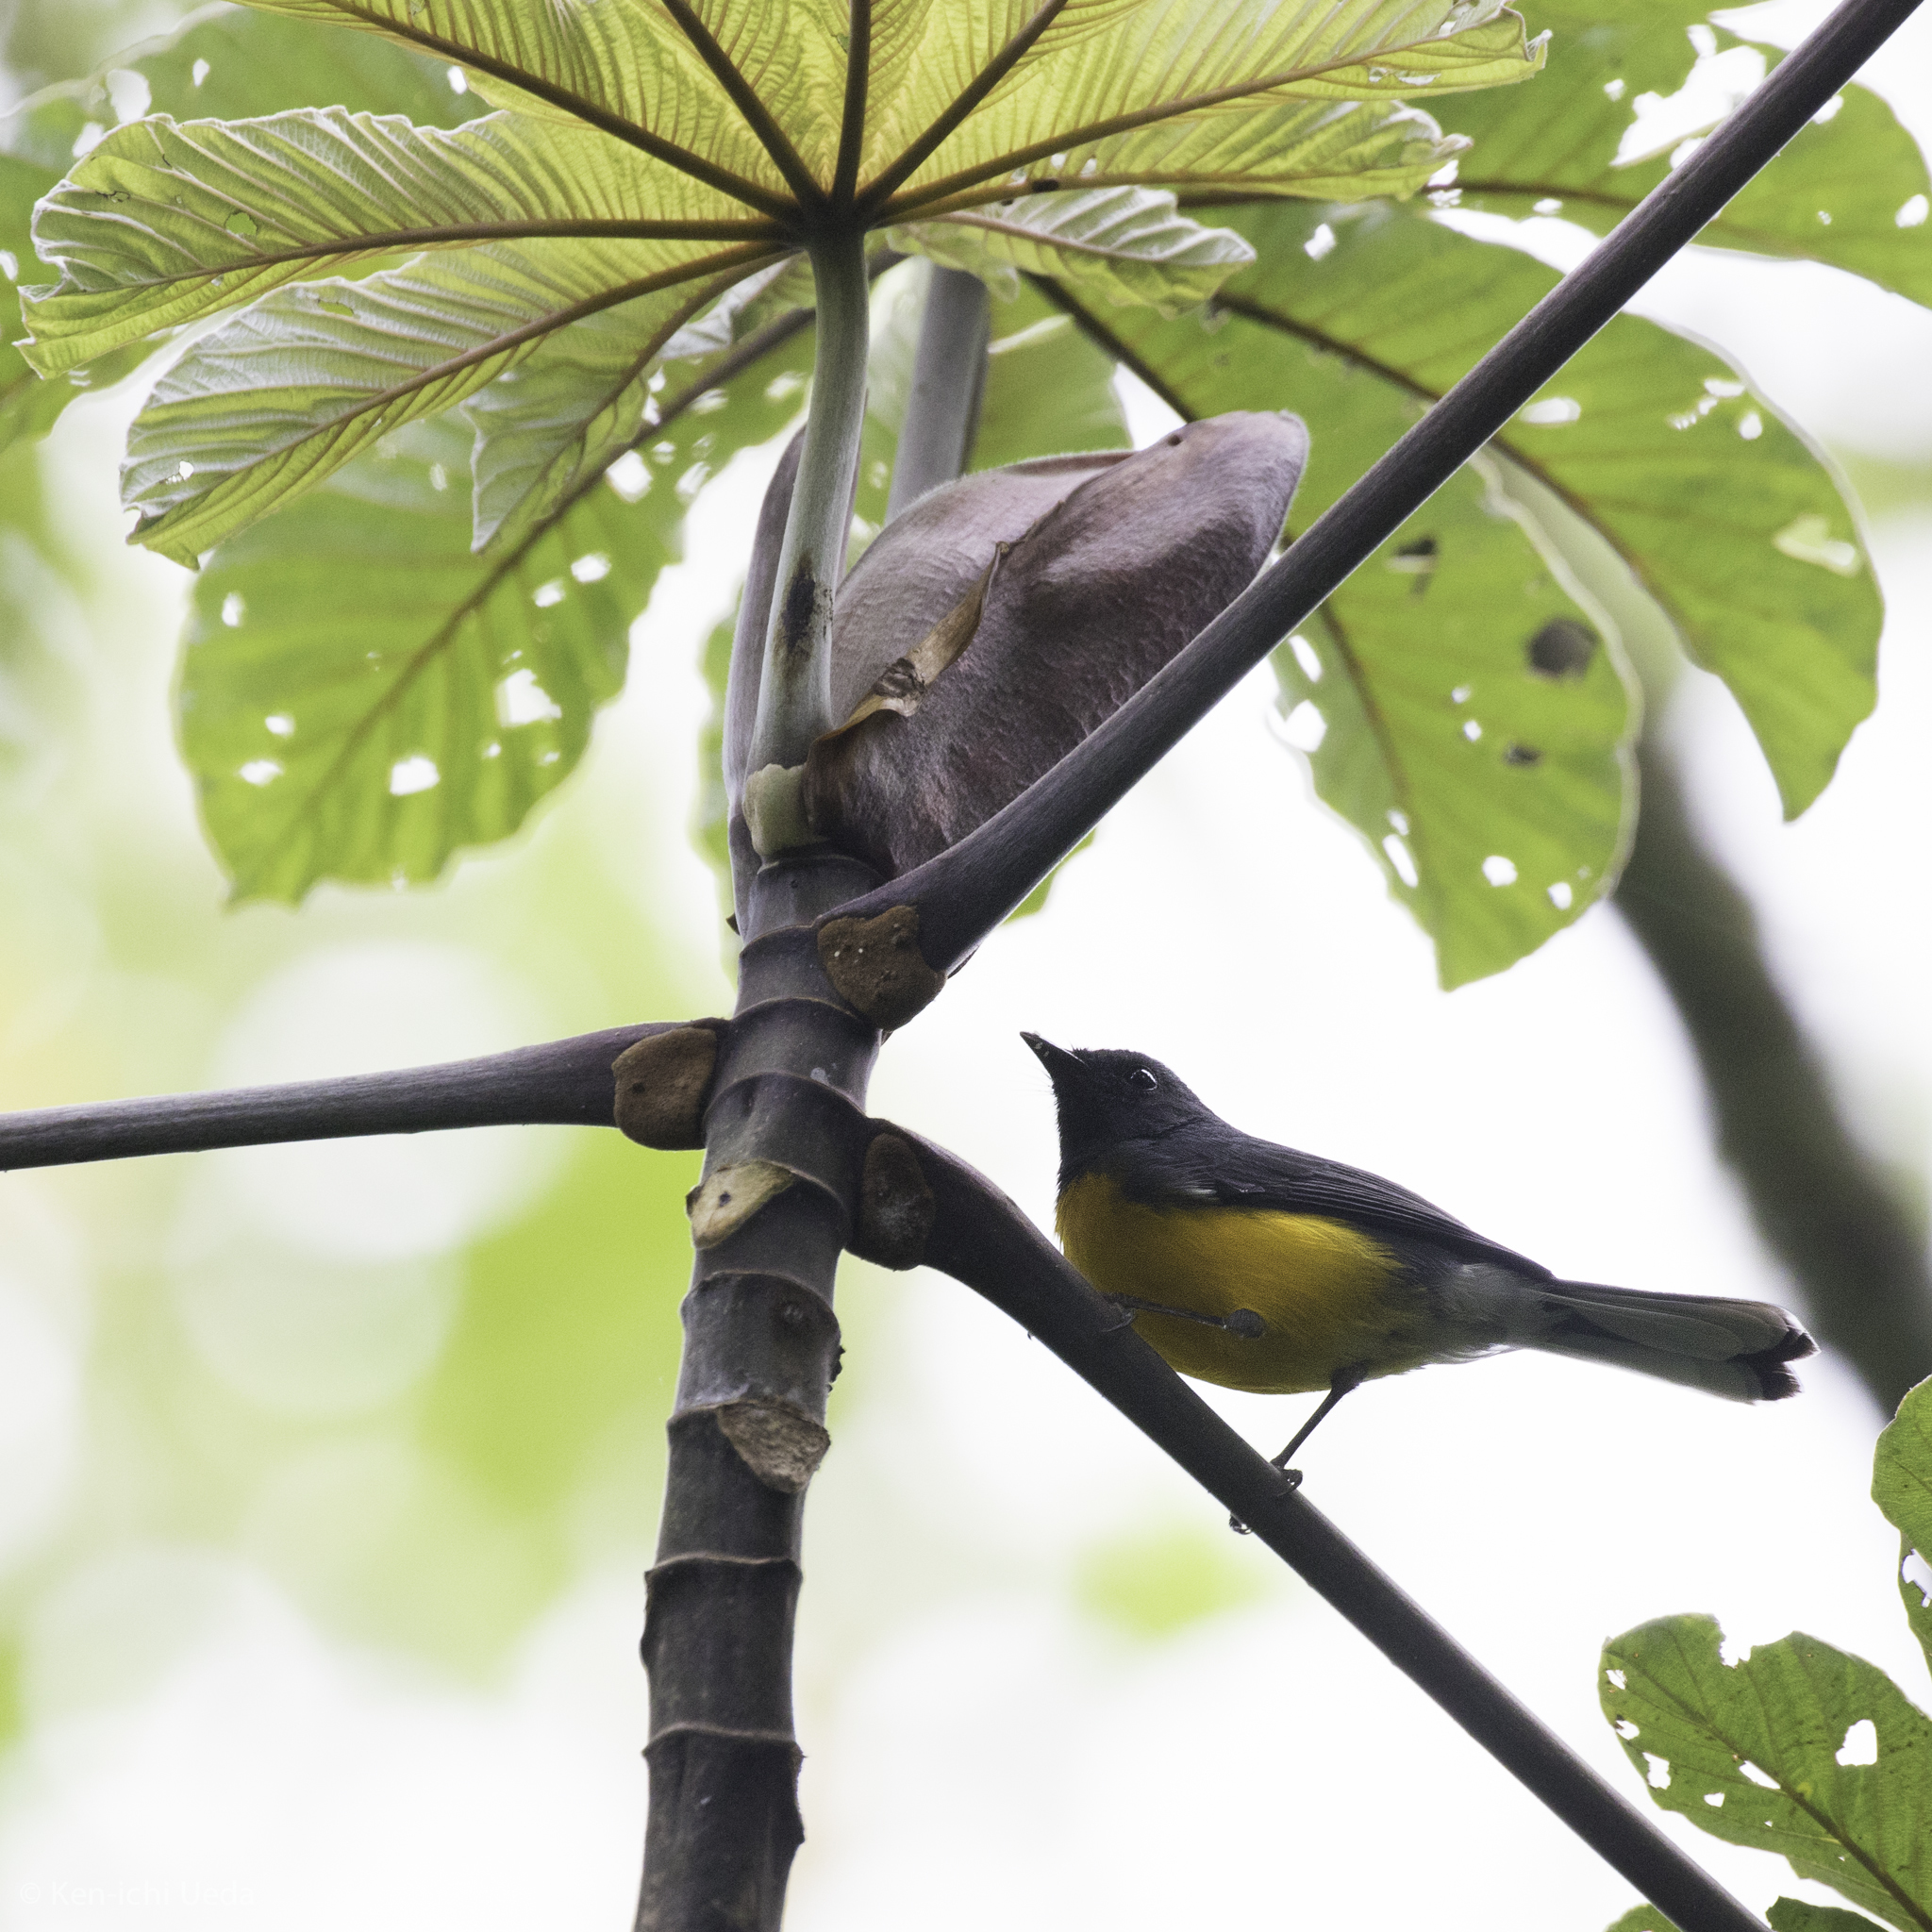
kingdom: Animalia
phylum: Chordata
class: Aves
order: Passeriformes
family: Parulidae
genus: Myioborus
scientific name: Myioborus miniatus
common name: Slate-throated redstart
